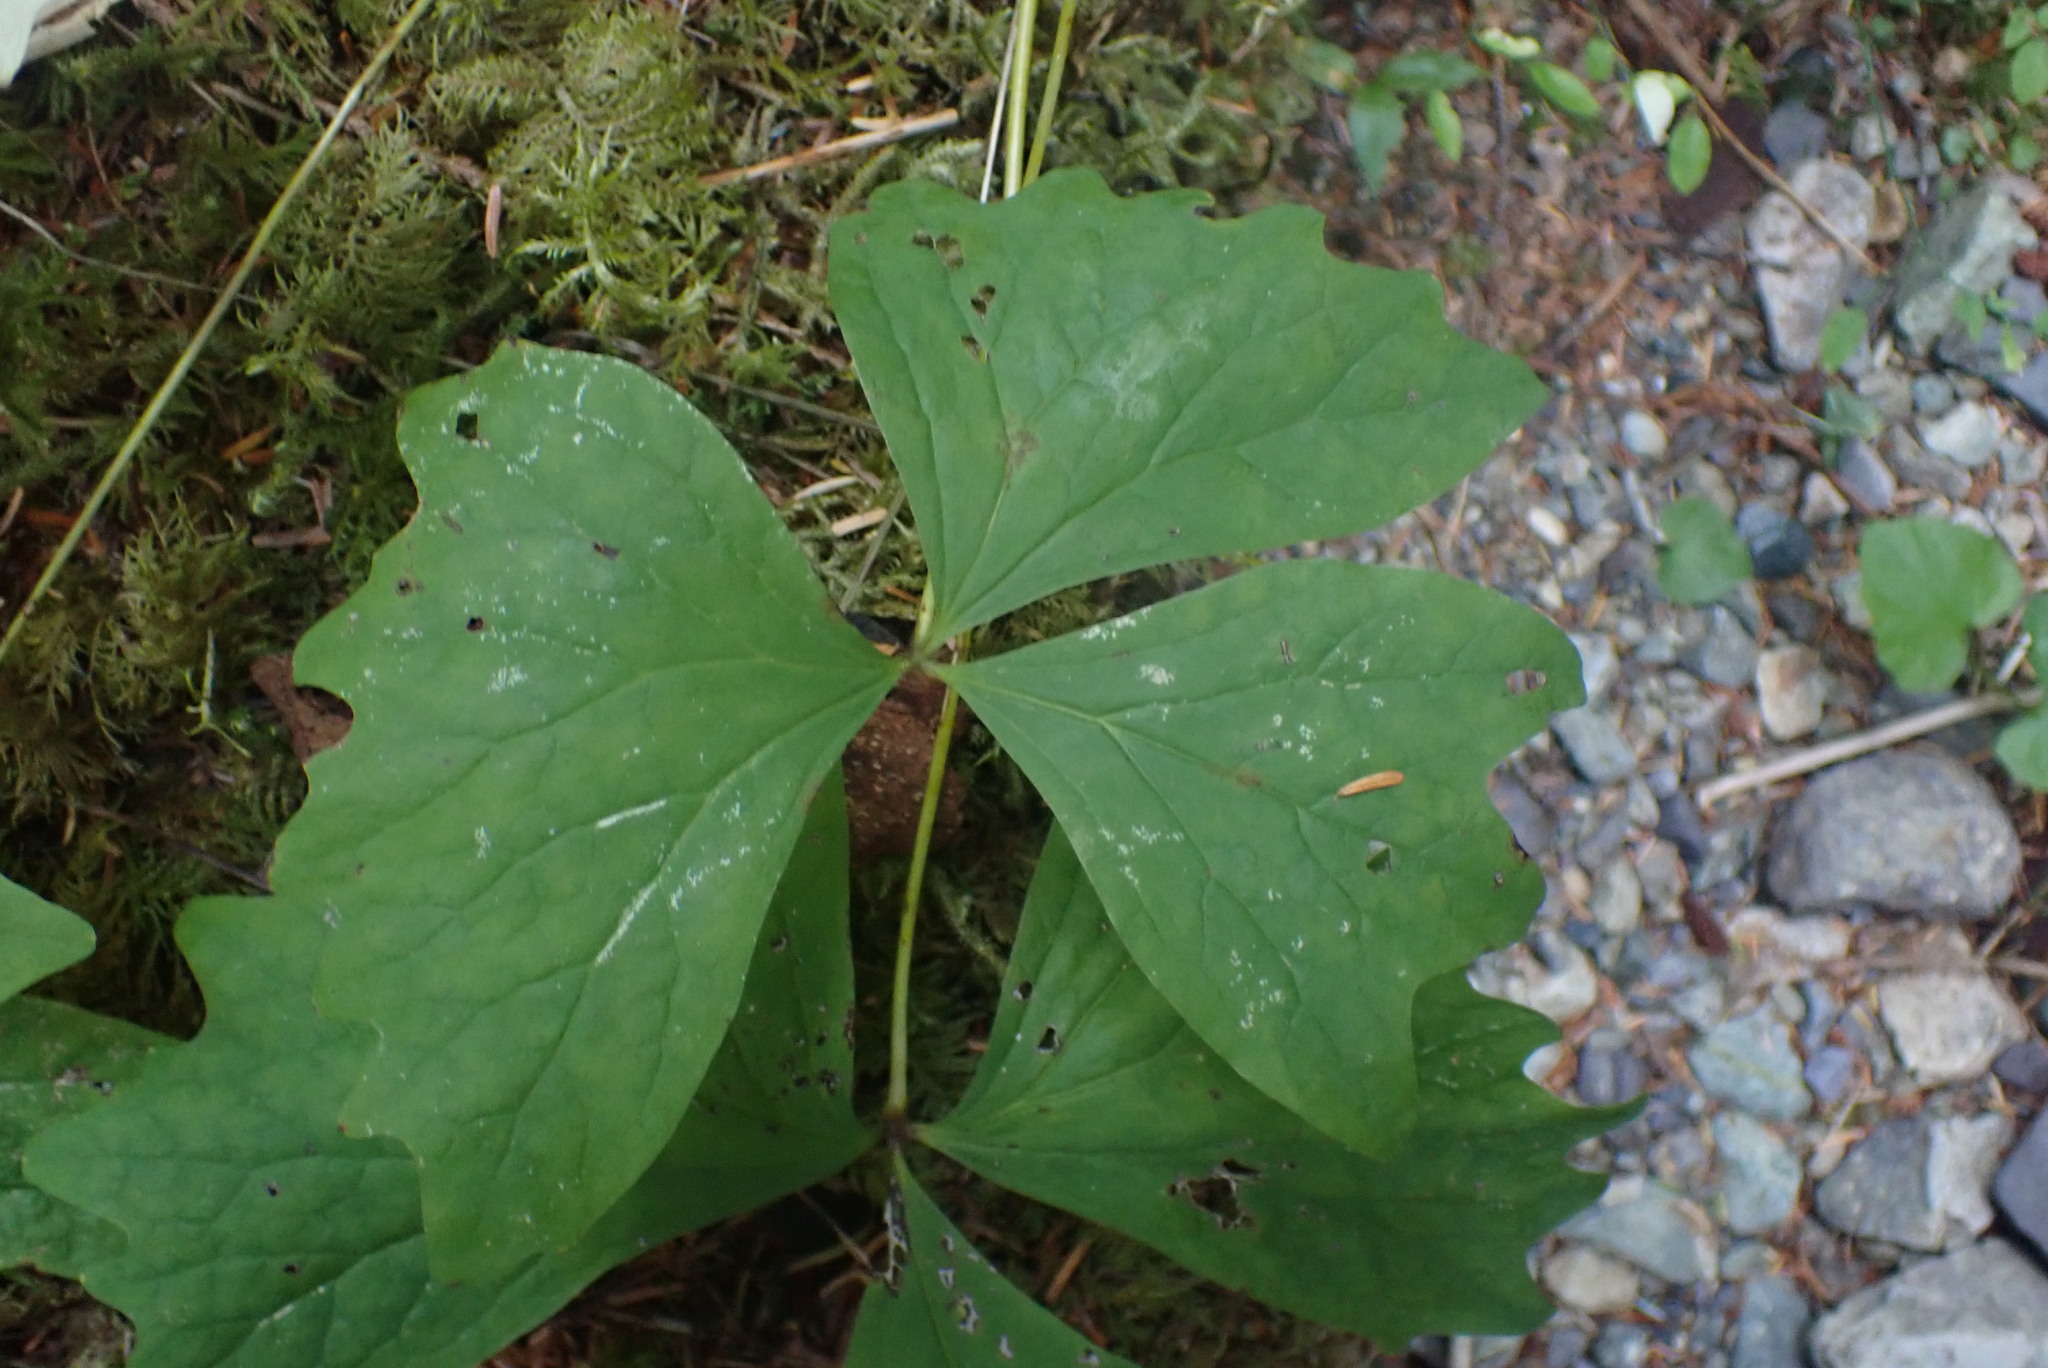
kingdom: Plantae
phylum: Tracheophyta
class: Magnoliopsida
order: Ranunculales
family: Berberidaceae
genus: Achlys
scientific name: Achlys triphylla
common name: Vanilla-leaf
